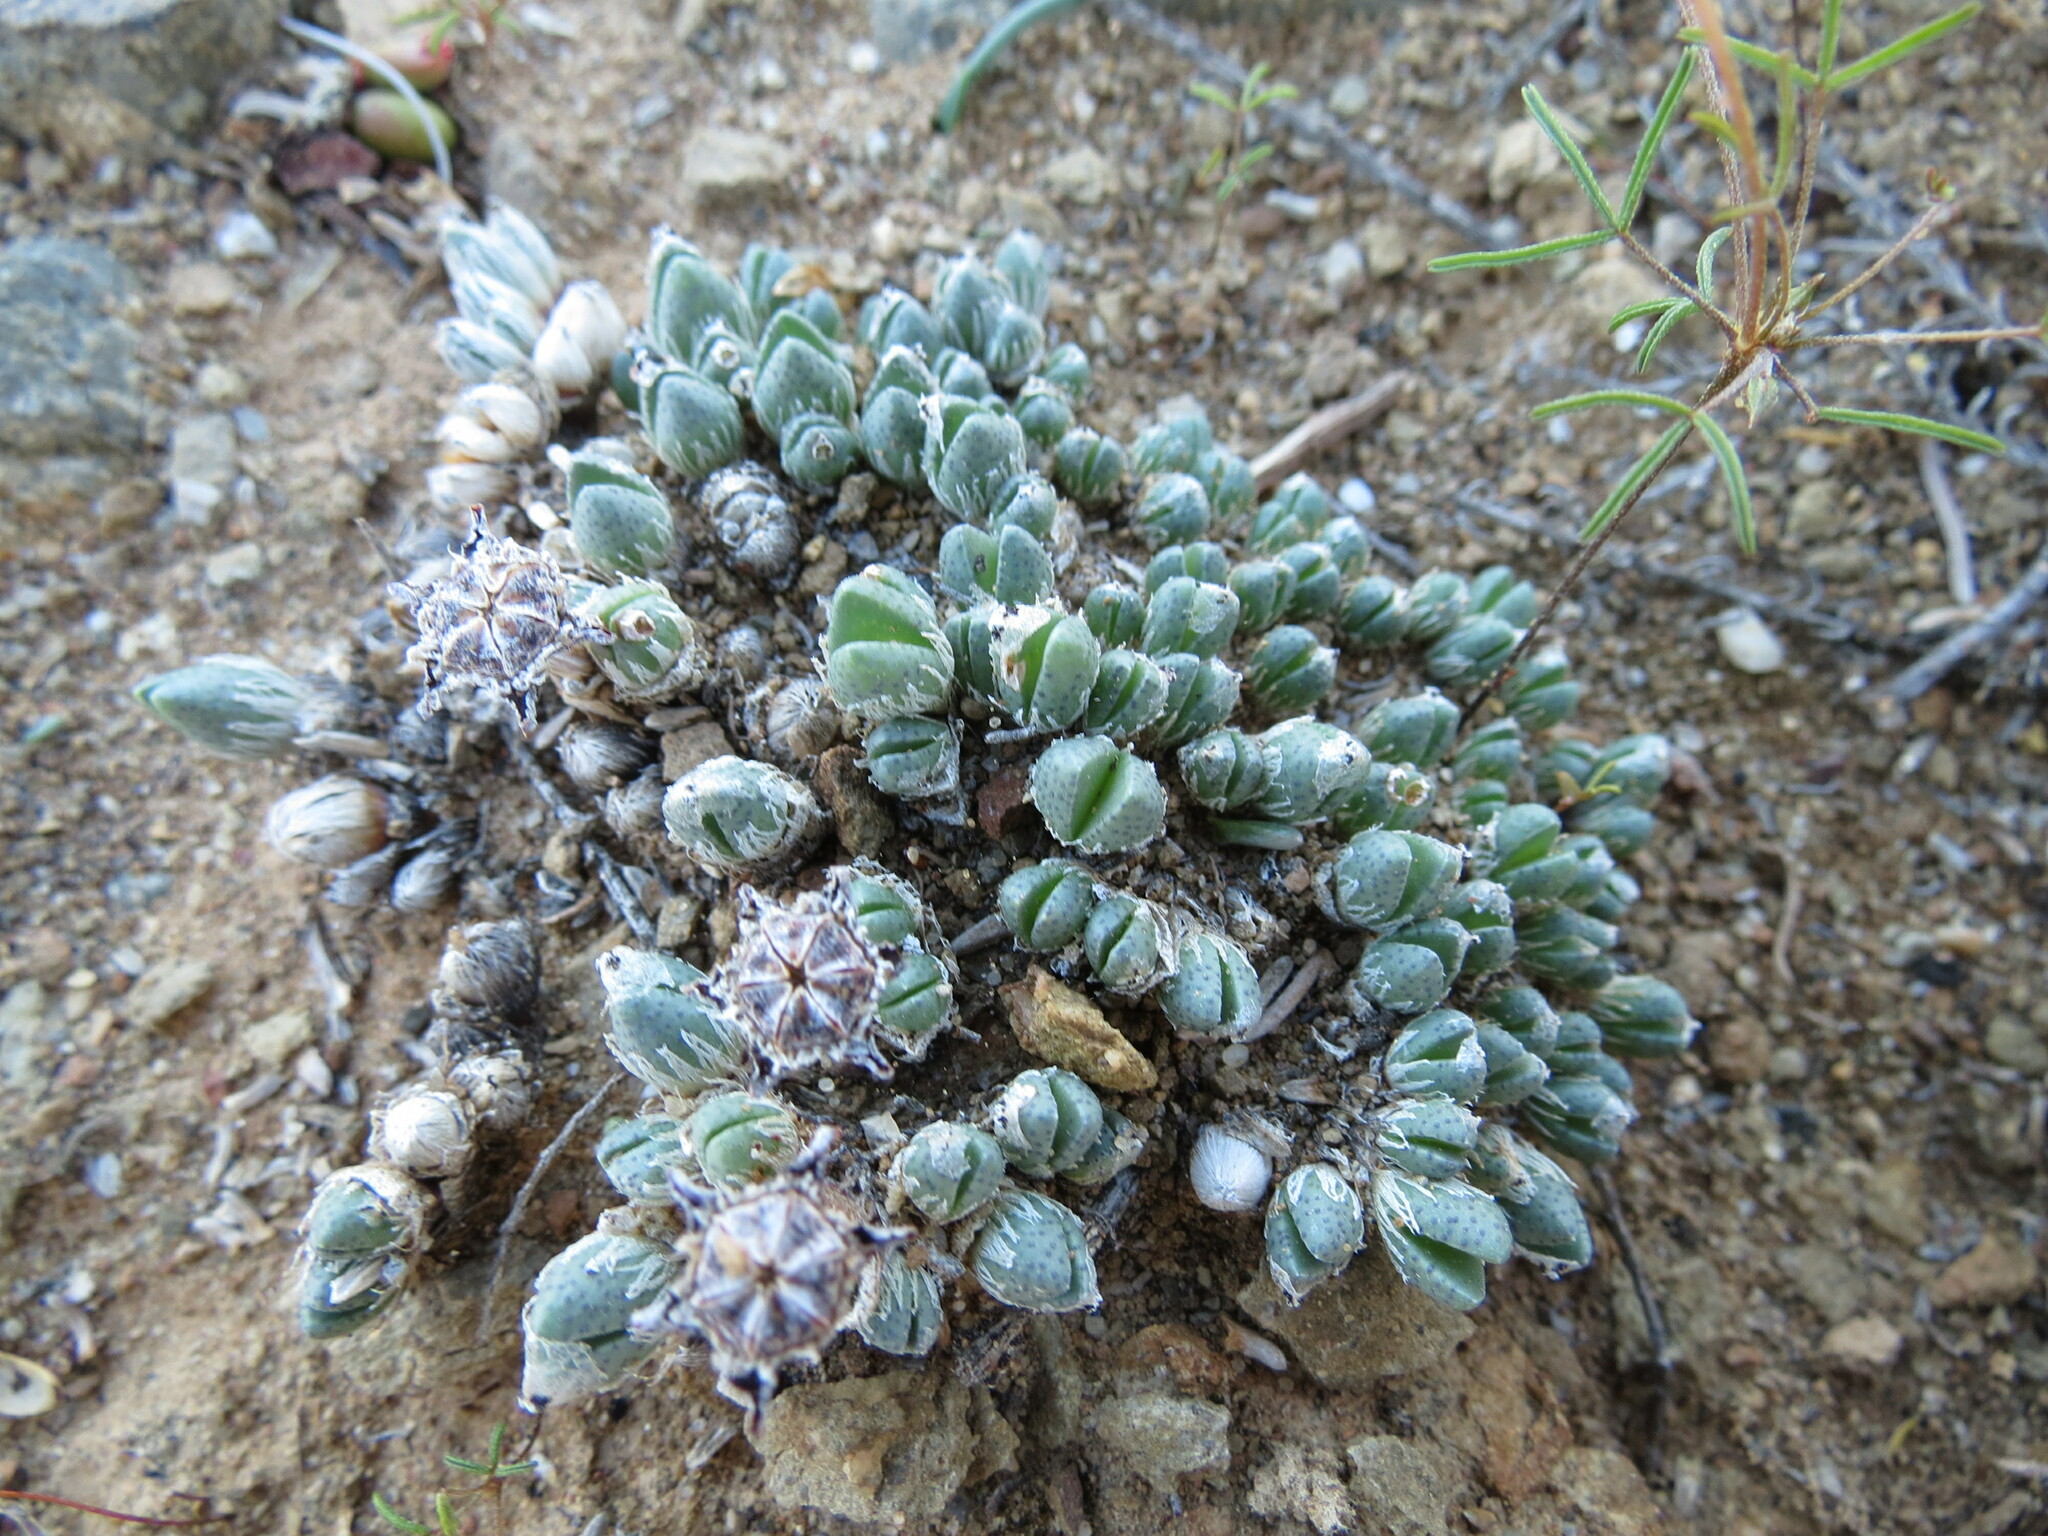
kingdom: Plantae
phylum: Tracheophyta
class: Magnoliopsida
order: Caryophyllales
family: Aizoaceae
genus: Antimima
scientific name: Antimima pygmaea
